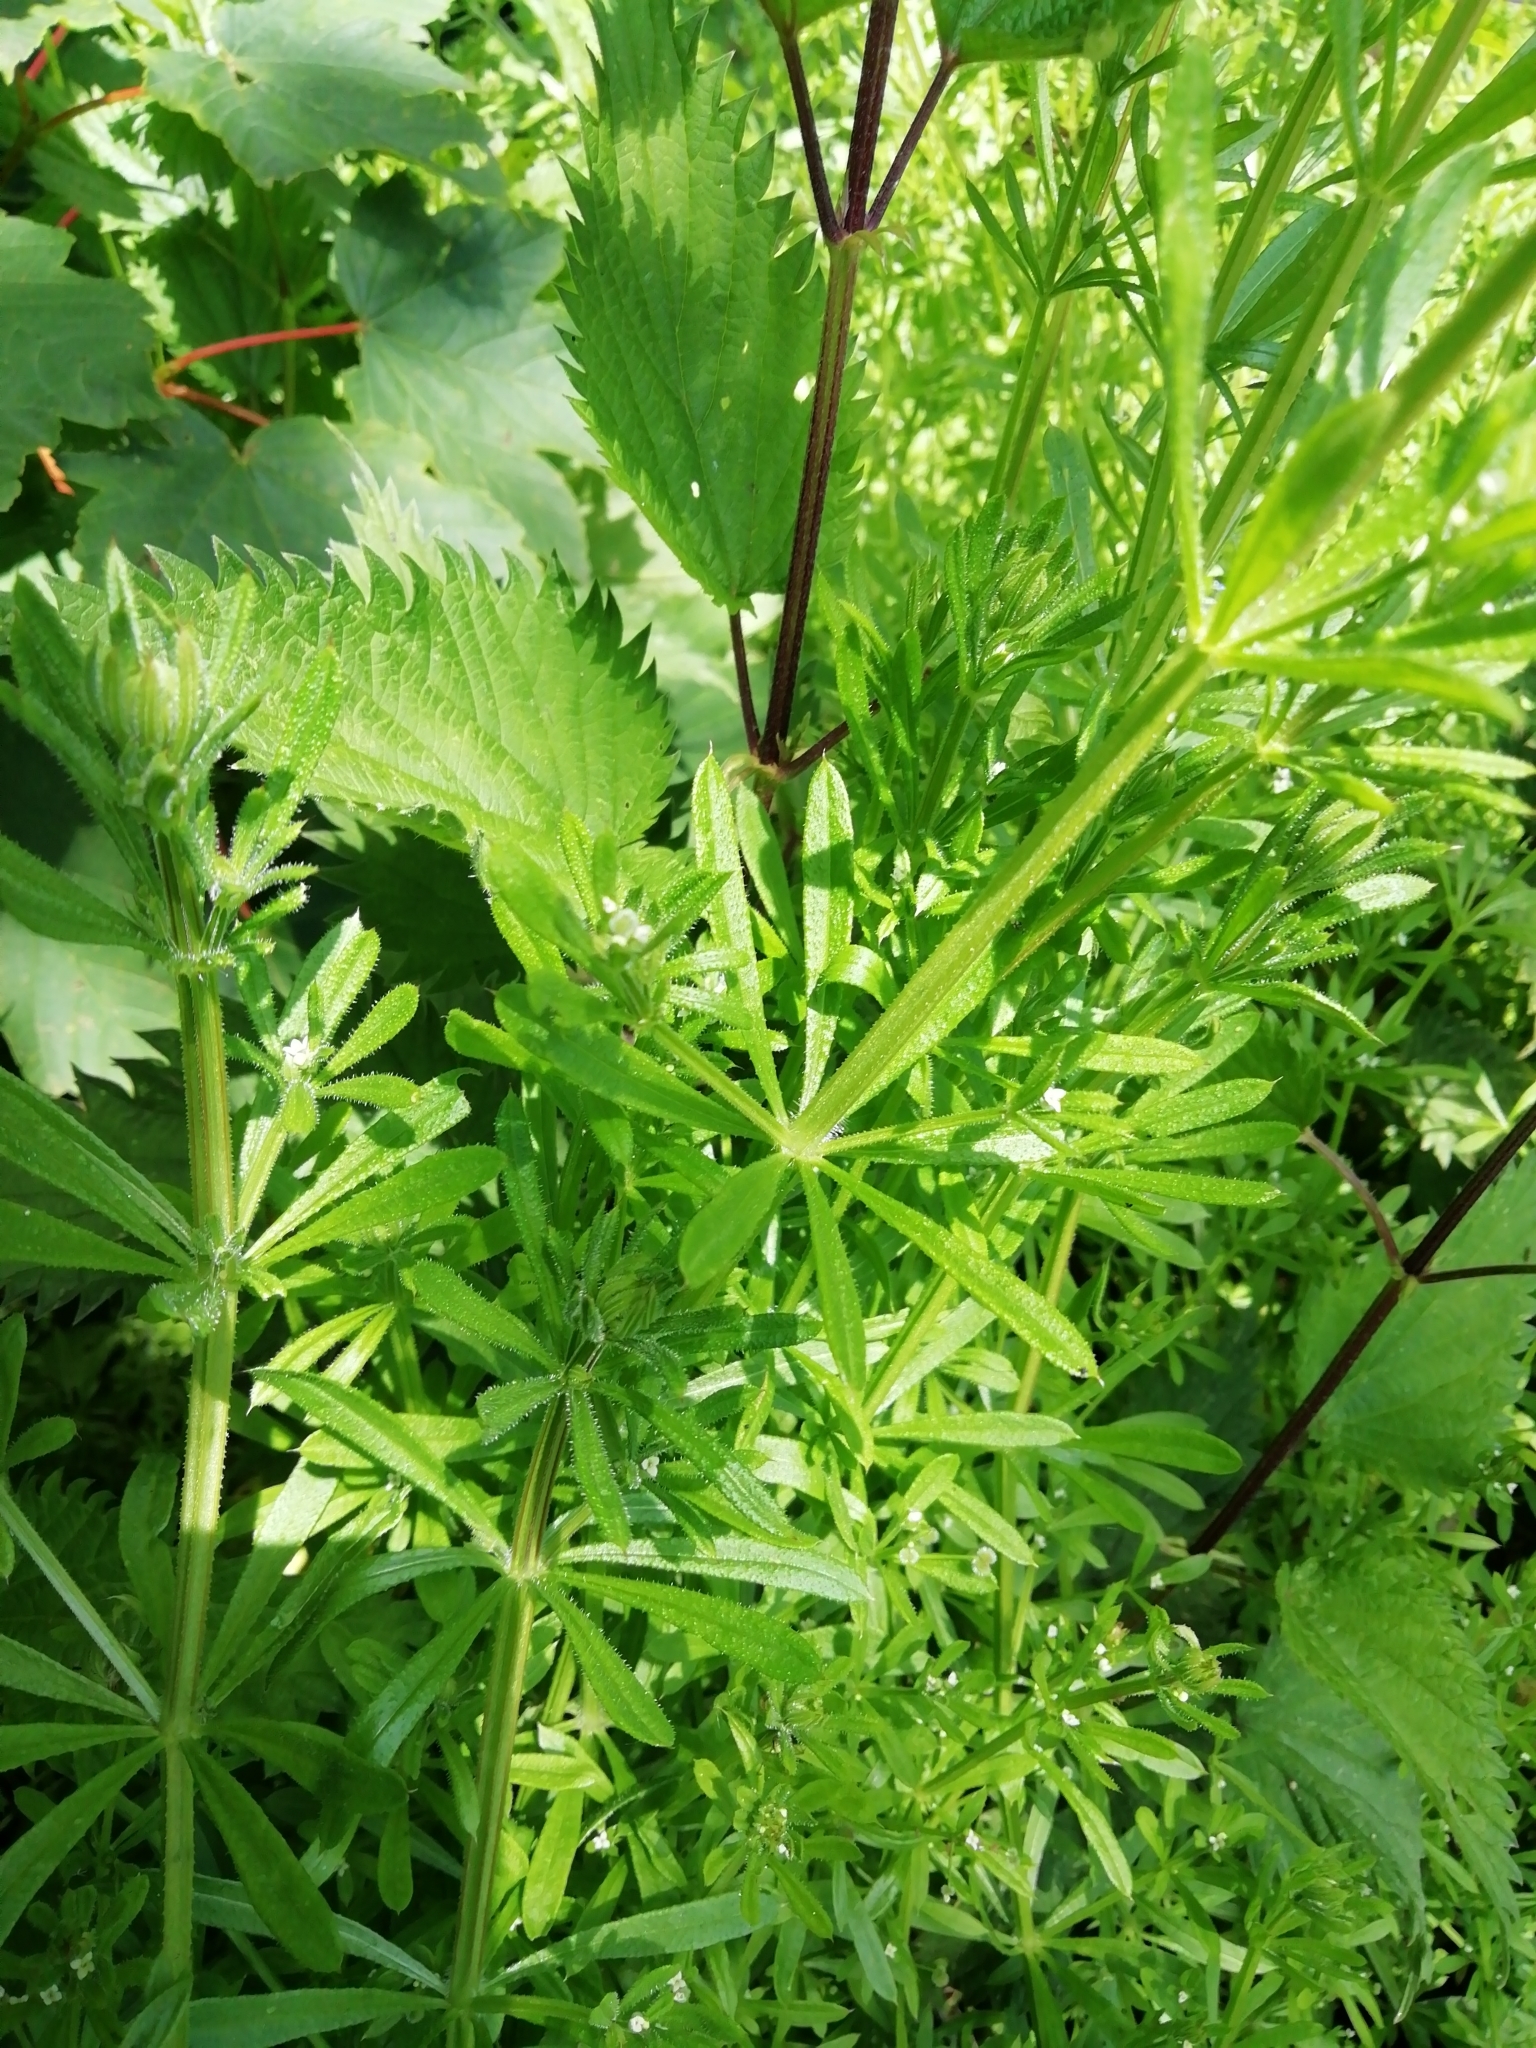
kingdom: Plantae
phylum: Tracheophyta
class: Magnoliopsida
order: Gentianales
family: Rubiaceae
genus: Galium
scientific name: Galium aparine
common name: Cleavers
